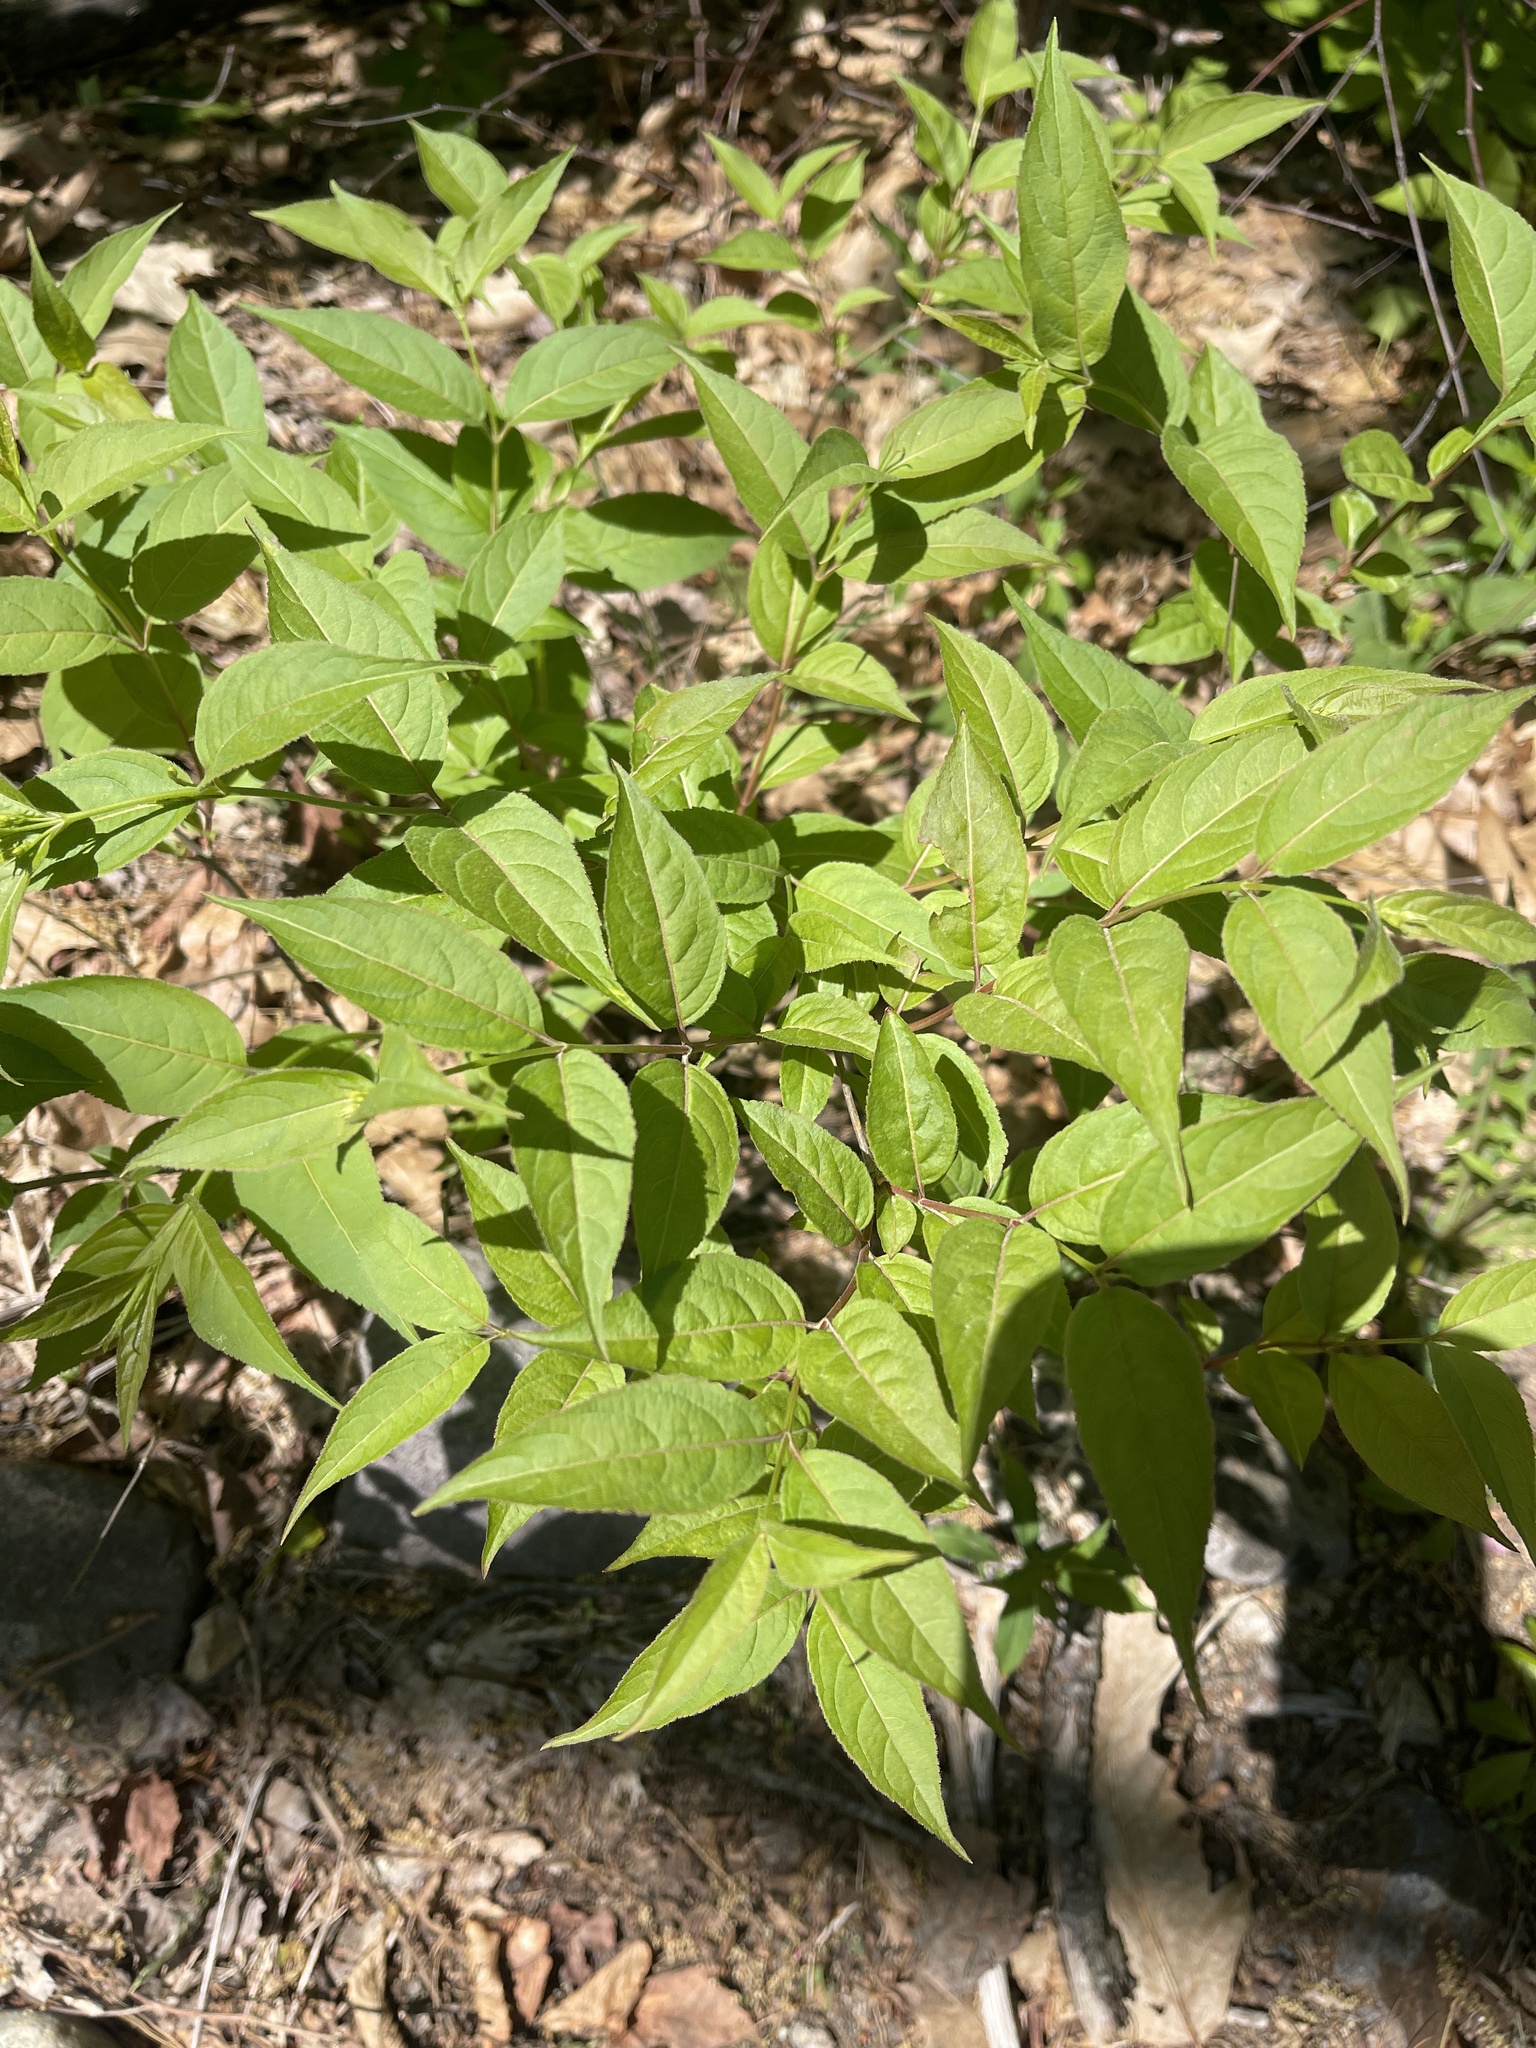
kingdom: Plantae
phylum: Tracheophyta
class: Magnoliopsida
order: Dipsacales
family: Caprifoliaceae
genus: Diervilla
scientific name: Diervilla lonicera
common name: Bush-honeysuckle
